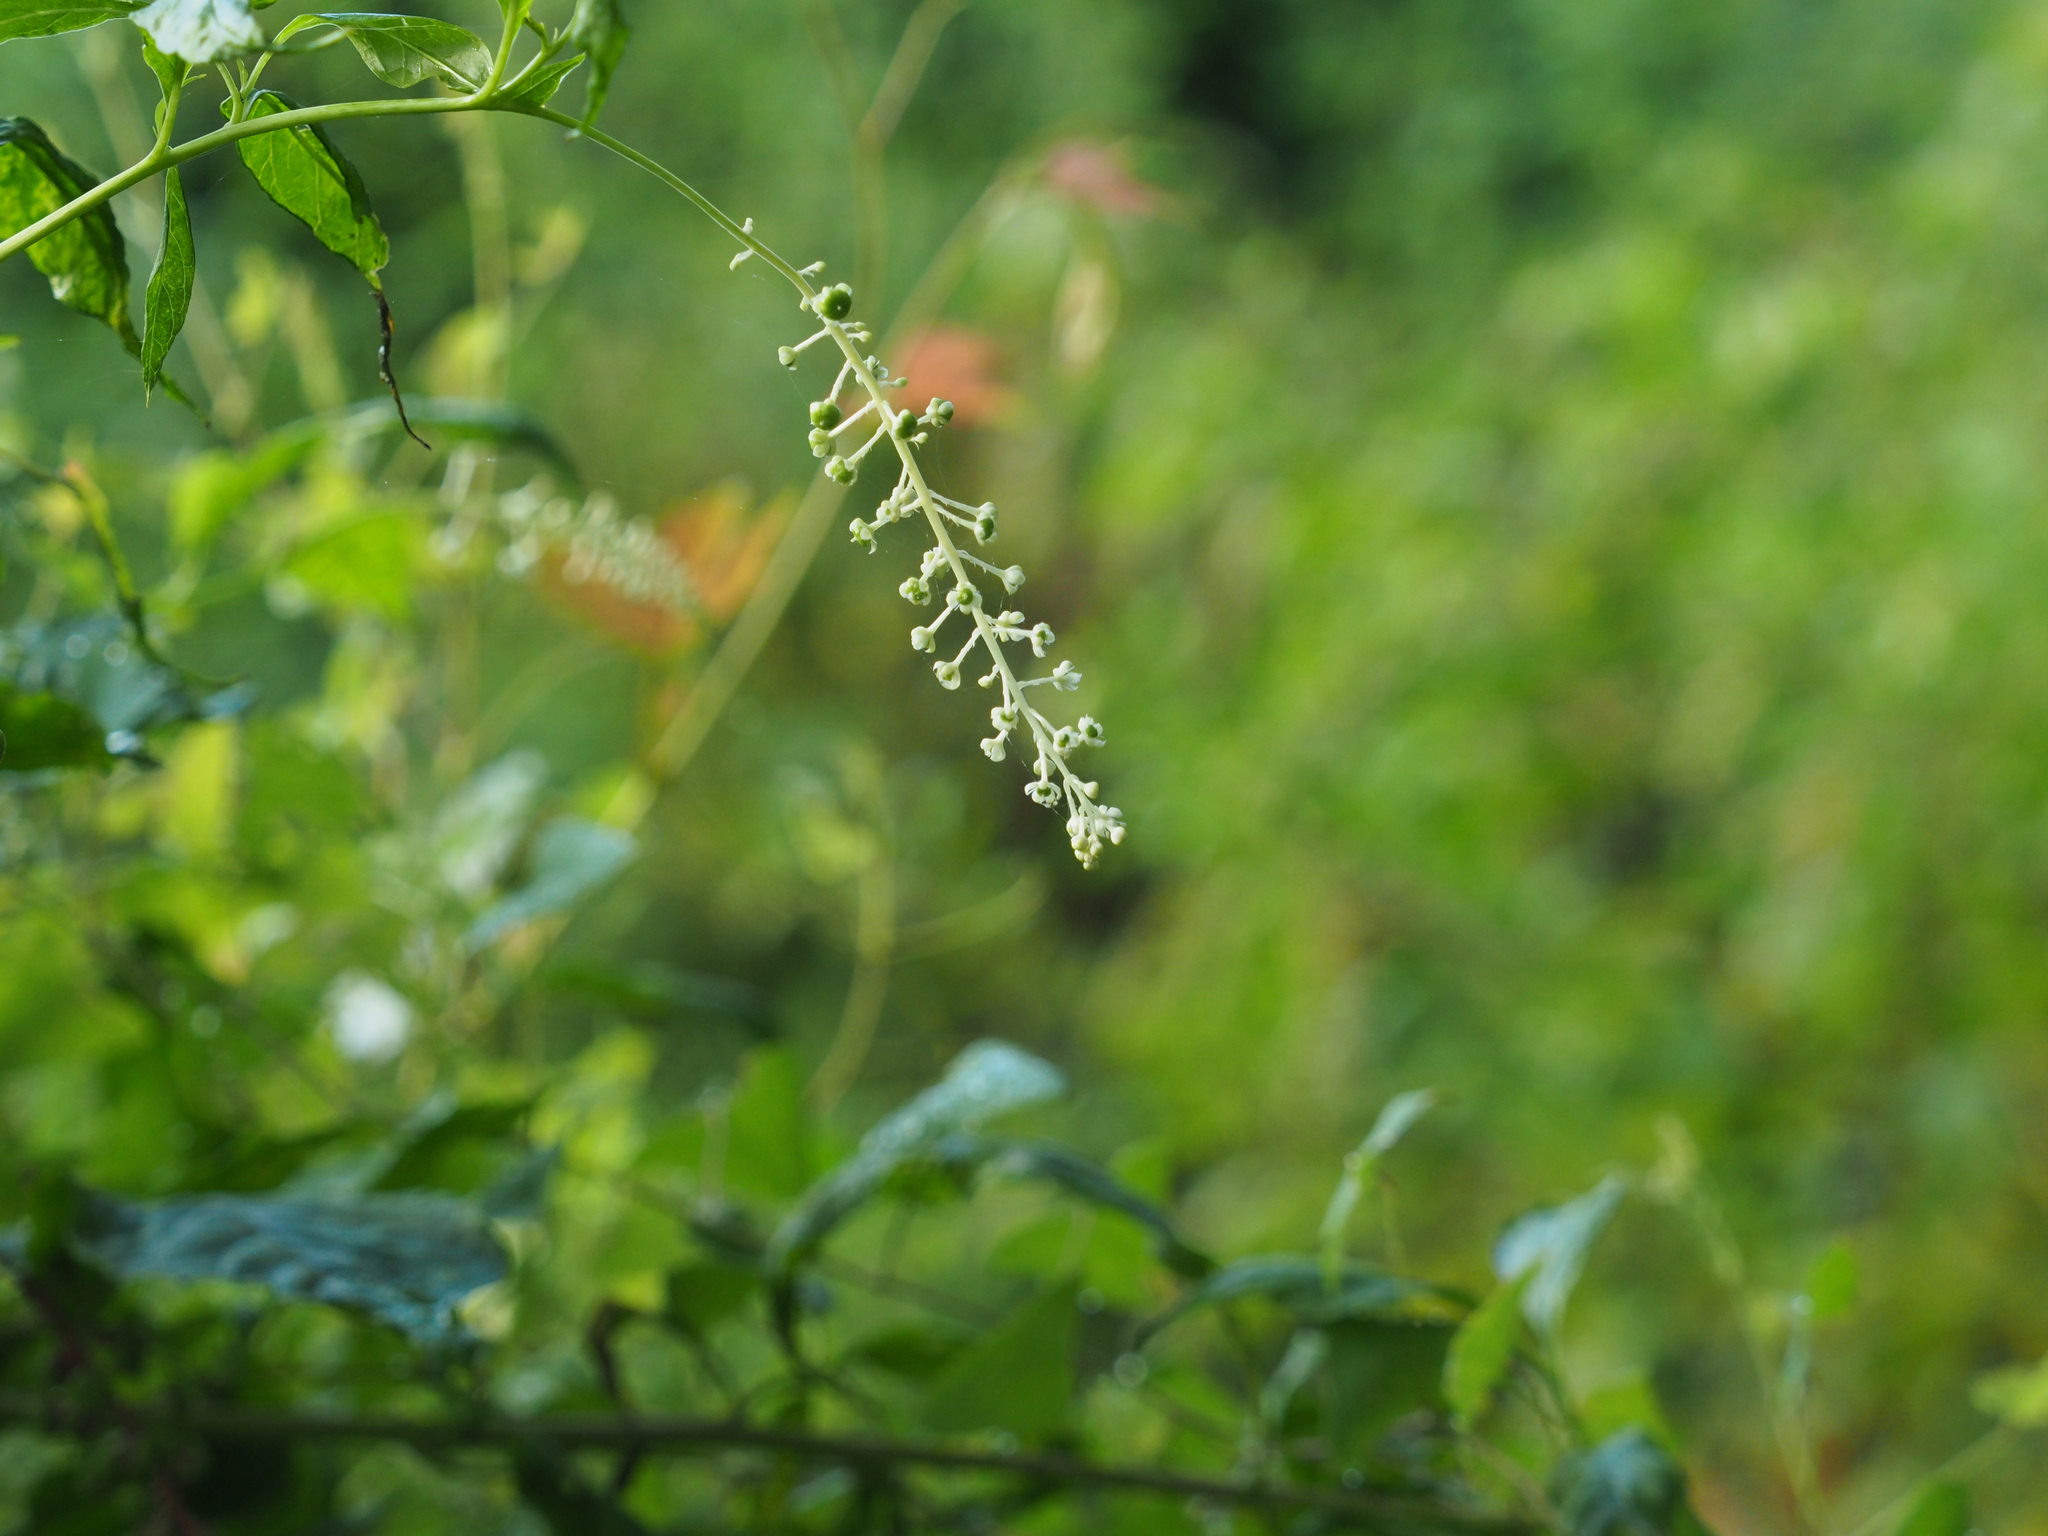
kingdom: Plantae
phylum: Tracheophyta
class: Magnoliopsida
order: Caryophyllales
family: Phytolaccaceae
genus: Phytolacca
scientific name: Phytolacca americana
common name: American pokeweed
